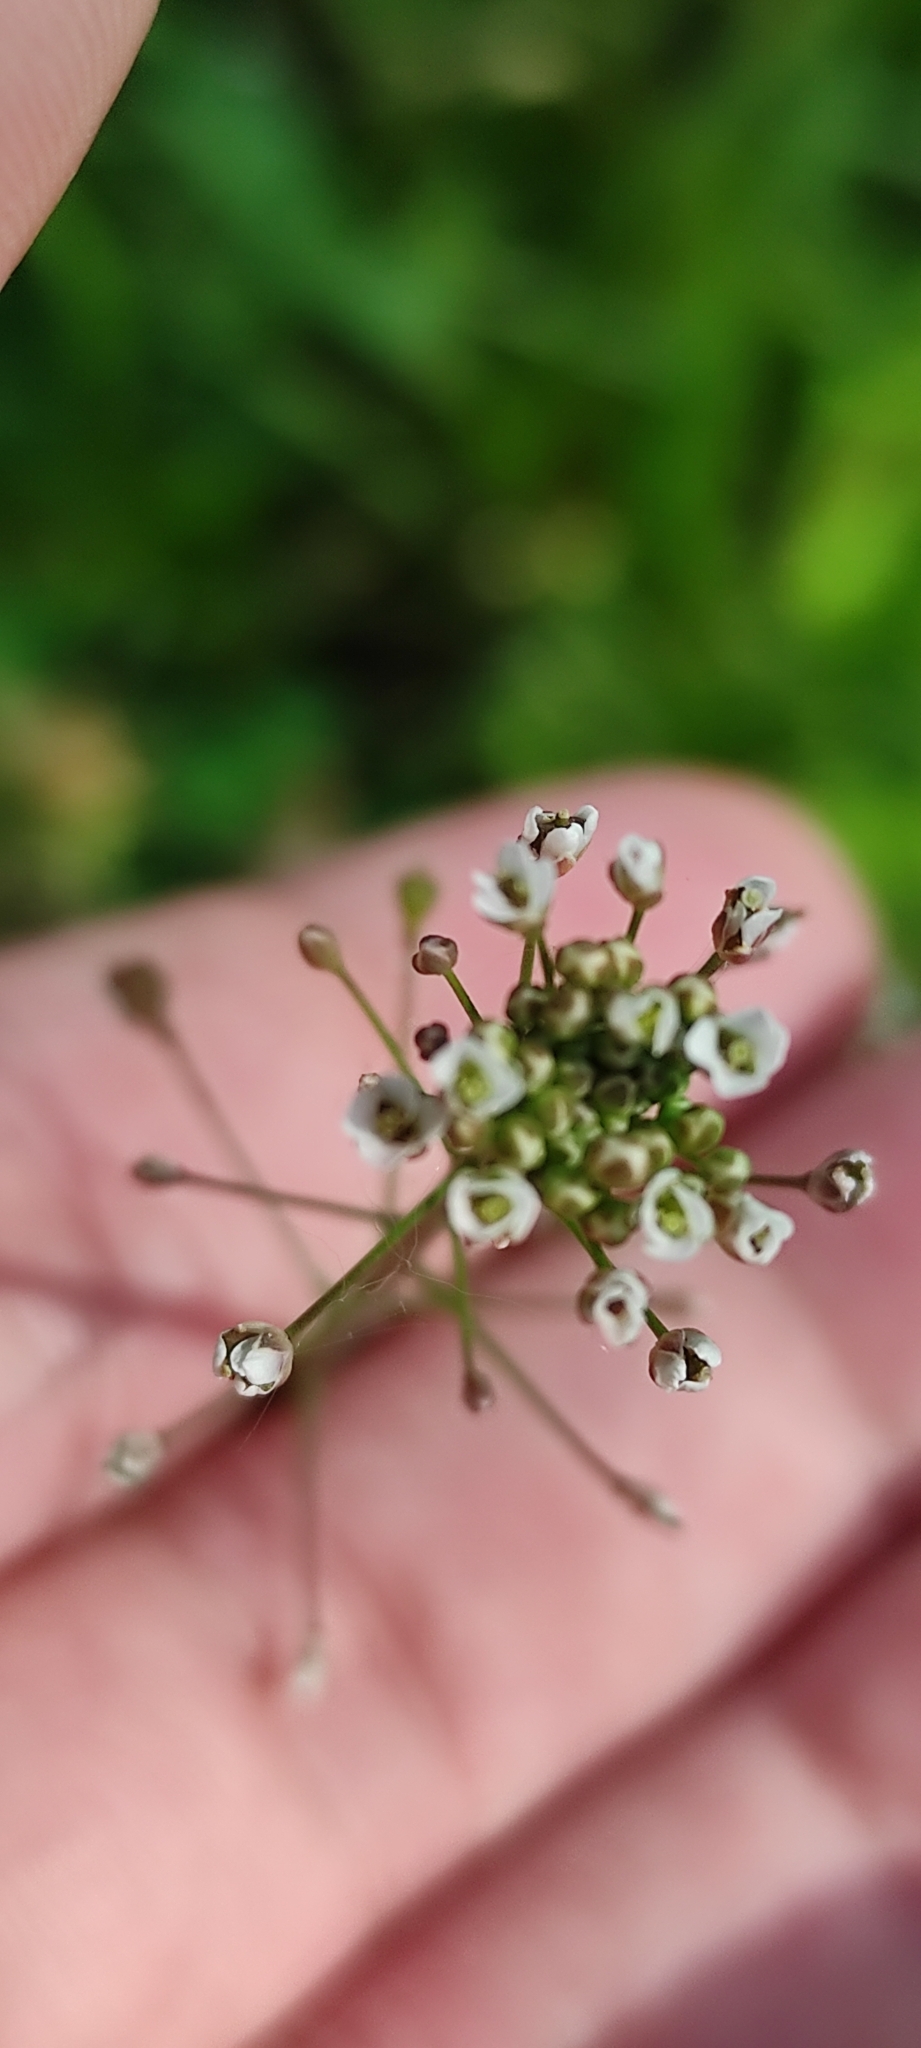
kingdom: Plantae
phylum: Tracheophyta
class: Magnoliopsida
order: Brassicales
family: Brassicaceae
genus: Capsella
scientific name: Capsella bursa-pastoris
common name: Shepherd's purse
